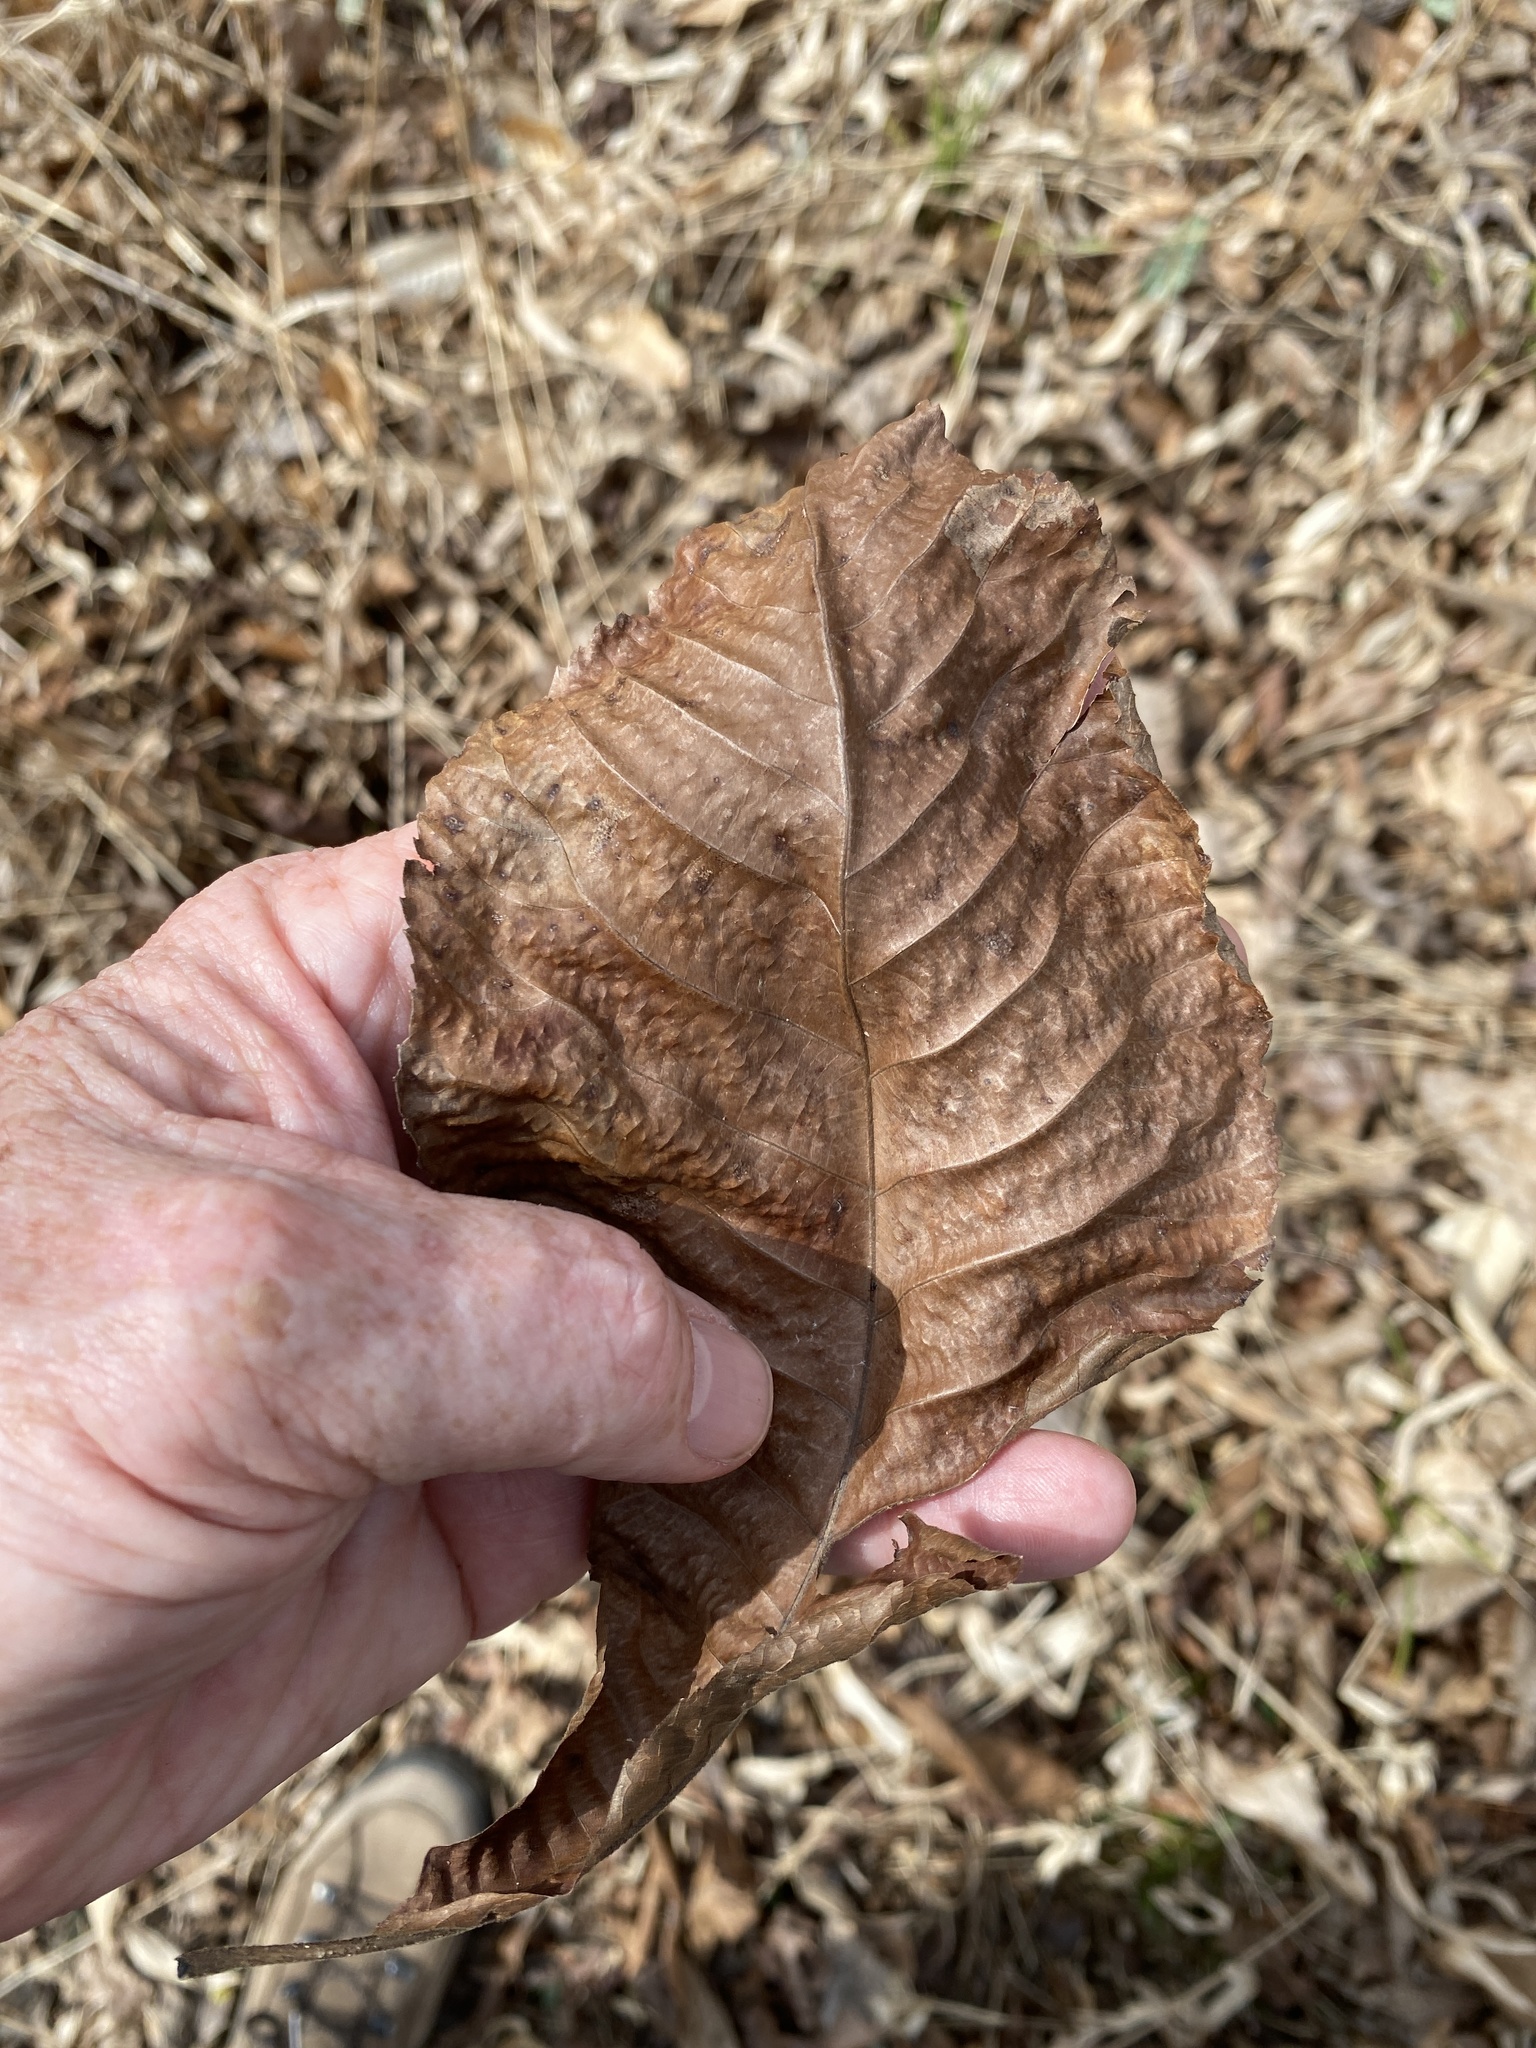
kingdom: Plantae
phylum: Tracheophyta
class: Magnoliopsida
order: Fagales
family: Juglandaceae
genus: Carya
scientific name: Carya ovata
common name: Shagbark hickory
